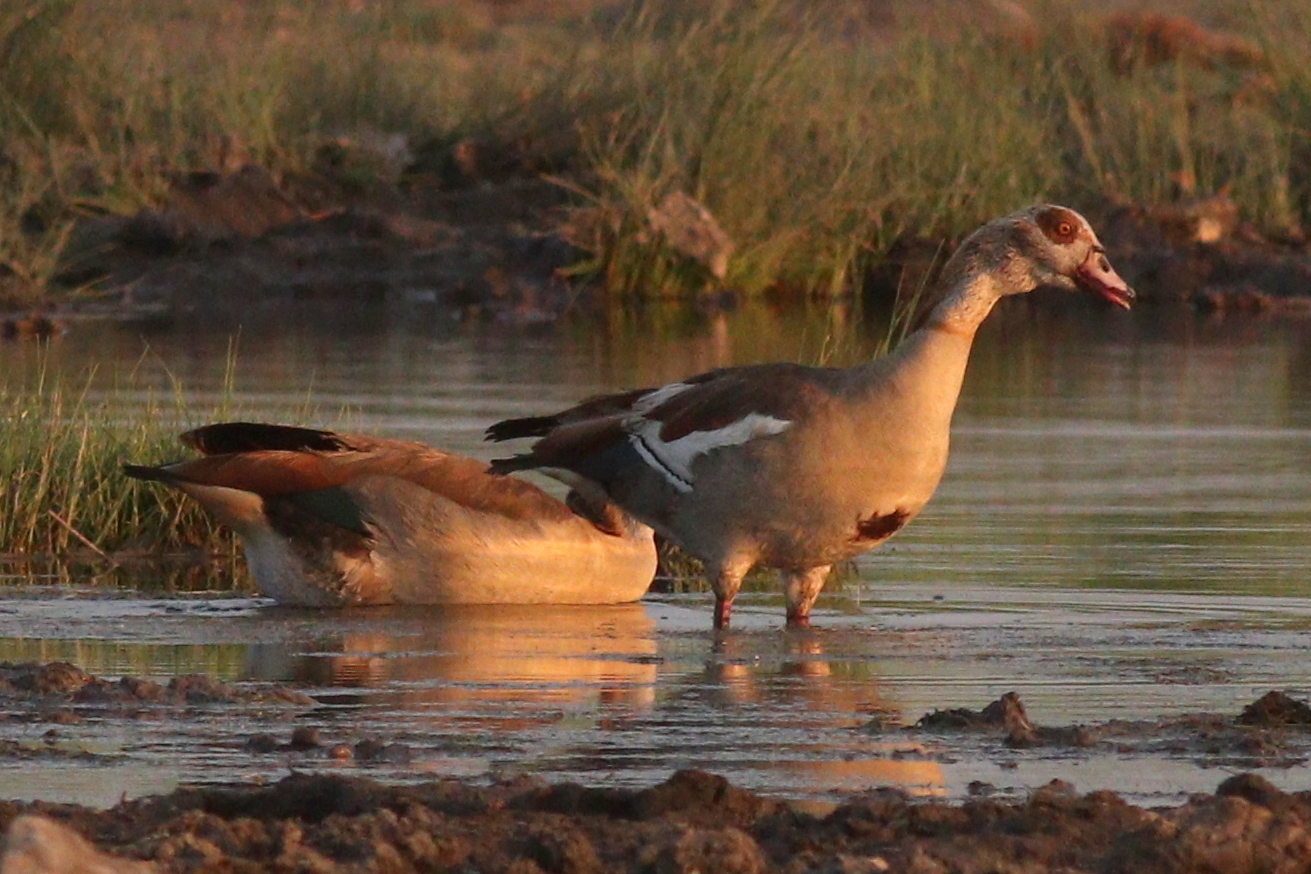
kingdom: Animalia
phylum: Chordata
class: Aves
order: Anseriformes
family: Anatidae
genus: Alopochen
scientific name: Alopochen aegyptiaca
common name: Egyptian goose
